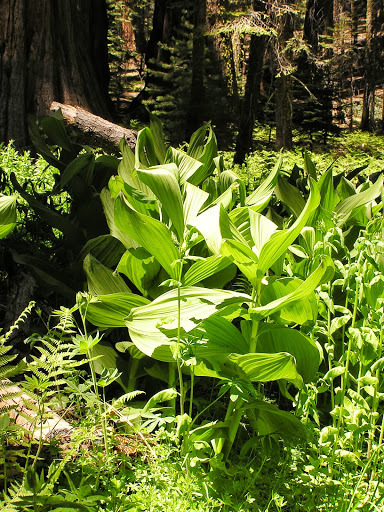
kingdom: Plantae
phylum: Tracheophyta
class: Liliopsida
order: Liliales
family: Melanthiaceae
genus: Veratrum
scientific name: Veratrum californicum
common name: California veratrum
